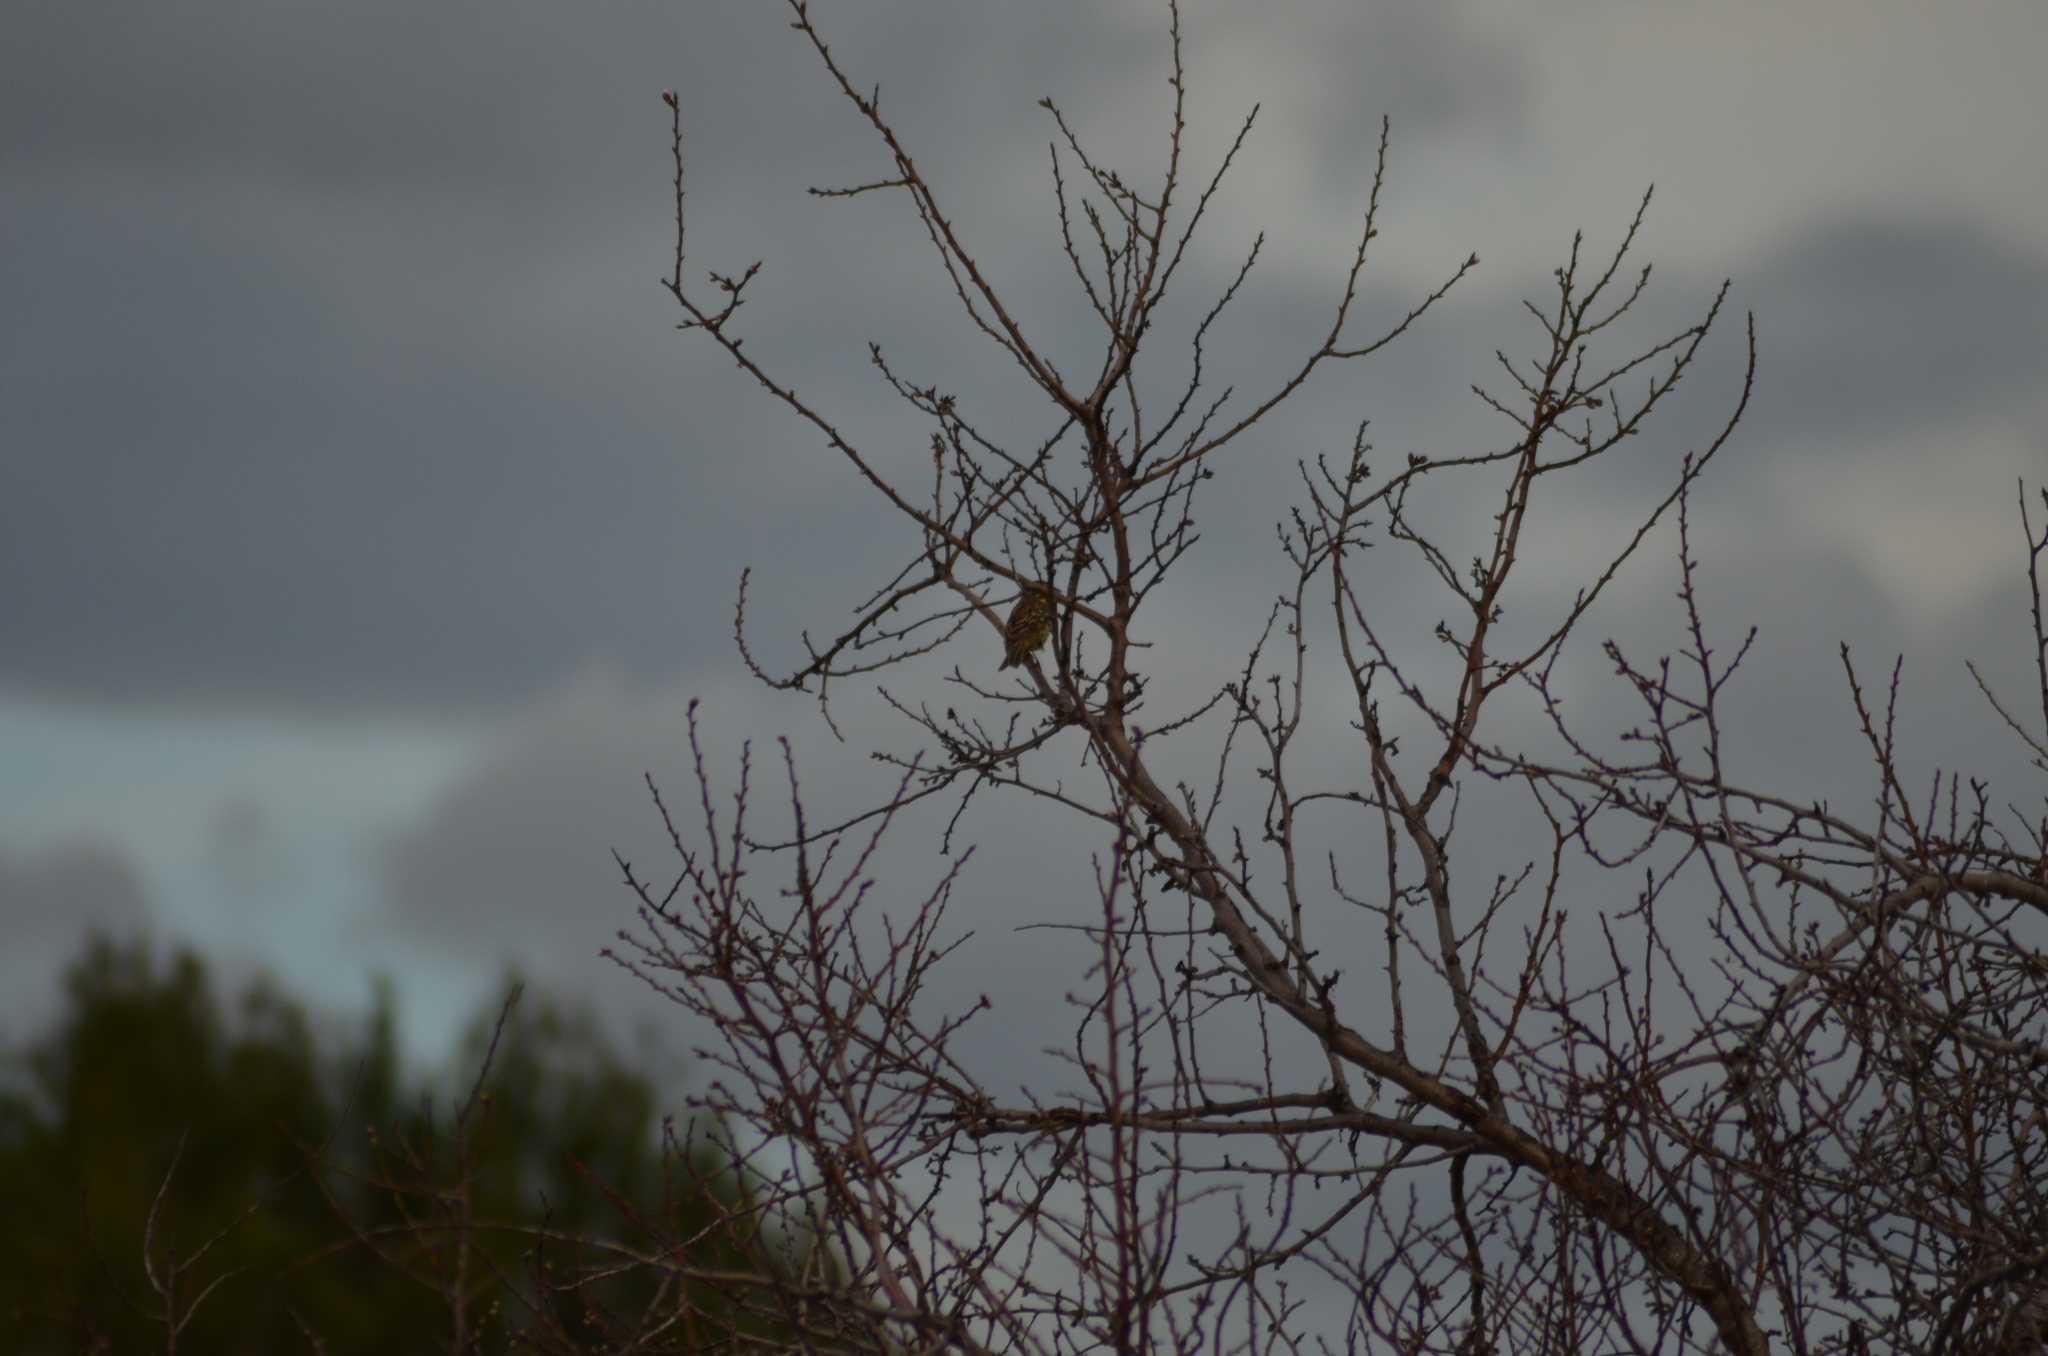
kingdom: Animalia
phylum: Chordata
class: Aves
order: Passeriformes
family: Emberizidae
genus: Emberiza
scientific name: Emberiza cirlus
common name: Cirl bunting
